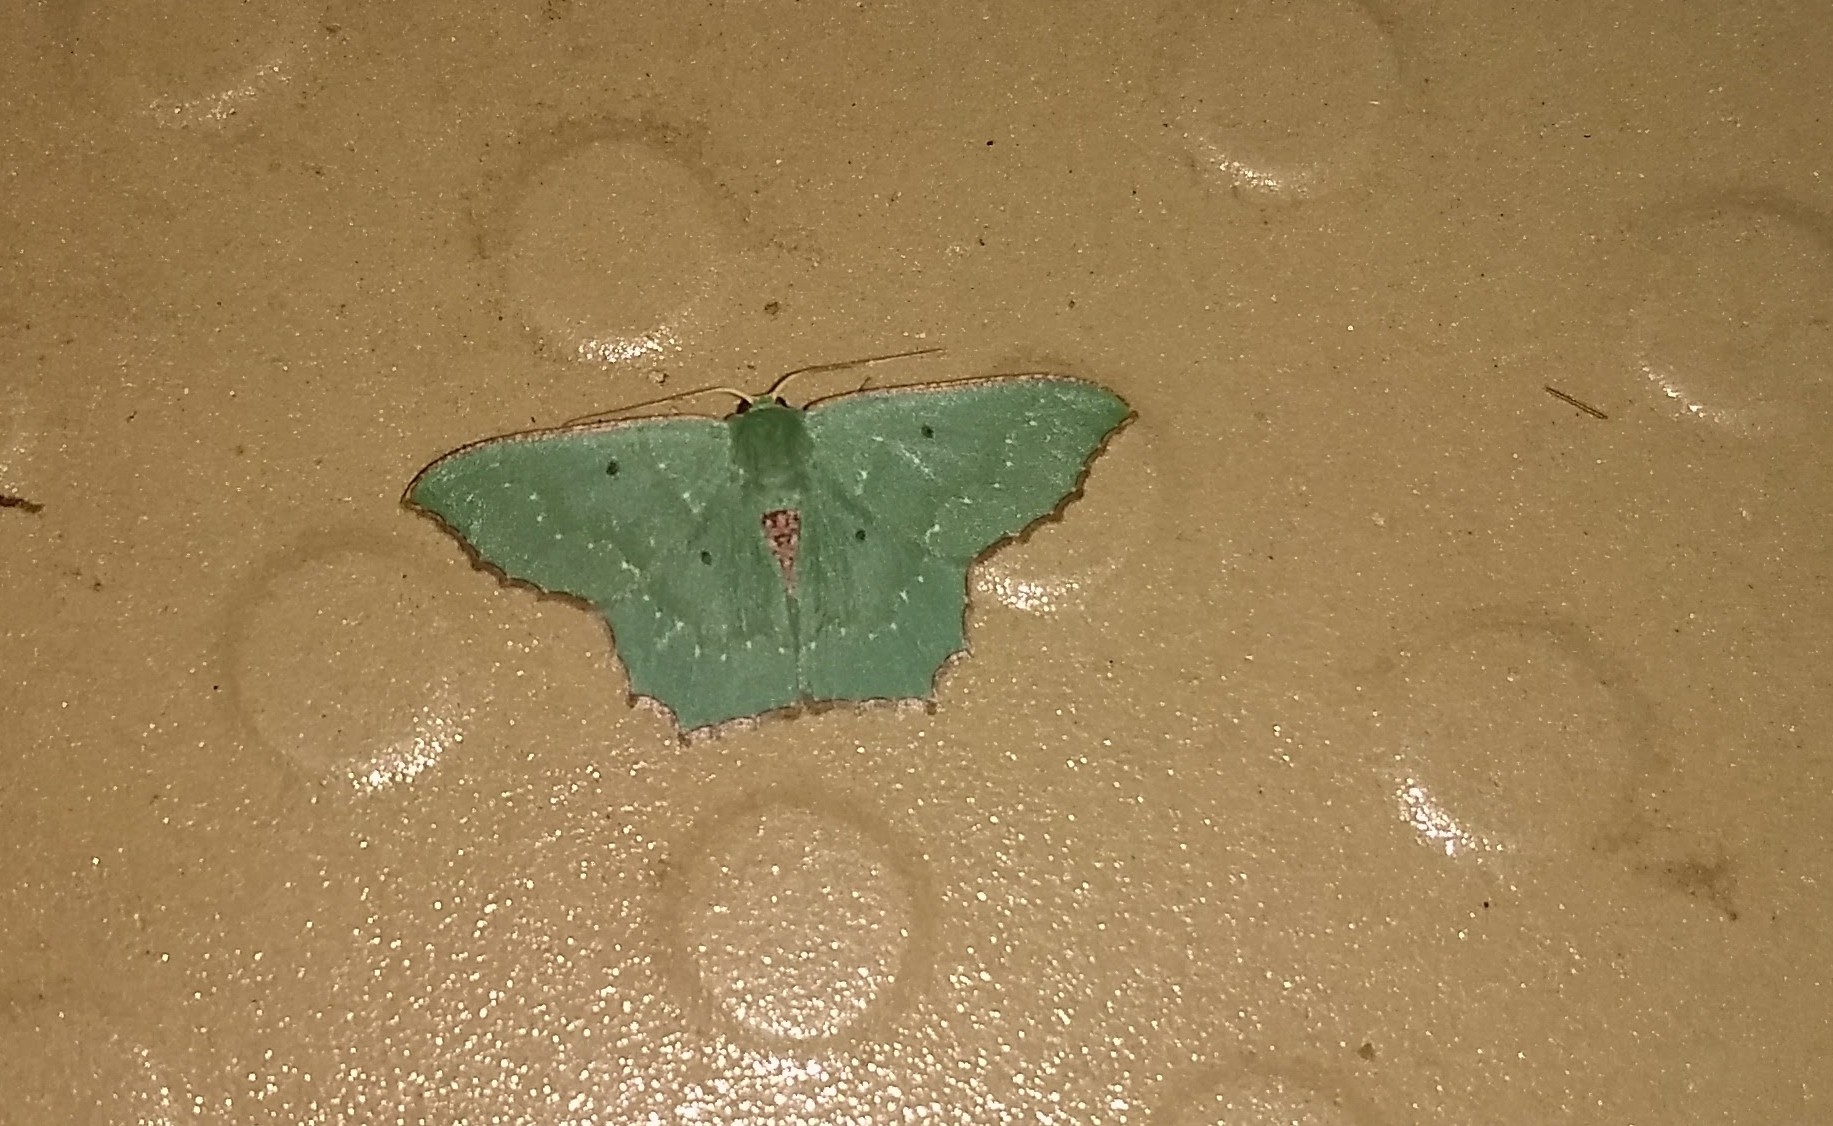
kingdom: Animalia
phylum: Arthropoda
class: Insecta
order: Lepidoptera
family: Geometridae
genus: Episothalma
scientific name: Episothalma robustaria
